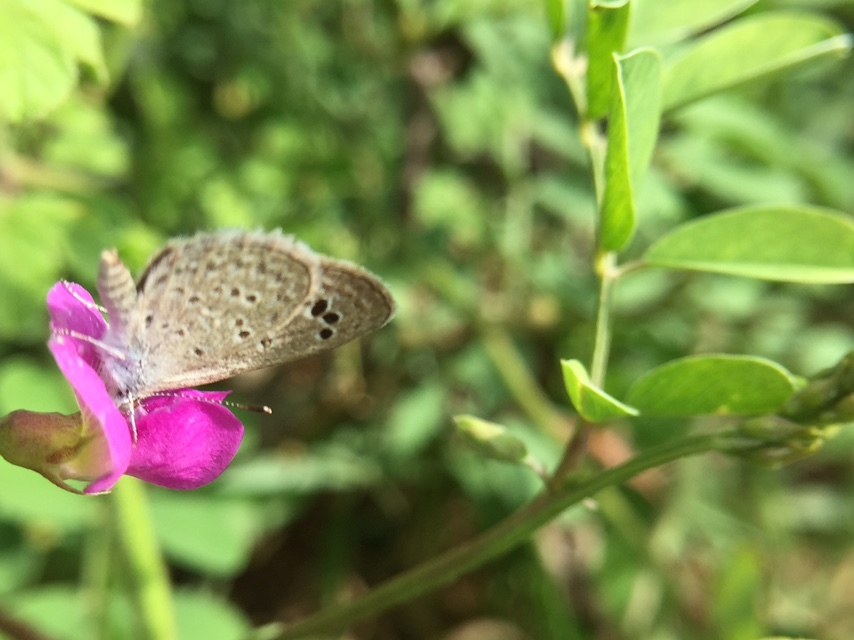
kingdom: Animalia
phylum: Arthropoda
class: Insecta
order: Lepidoptera
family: Lycaenidae
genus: Zizina
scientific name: Zizina otis
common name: Lesser grass blue
